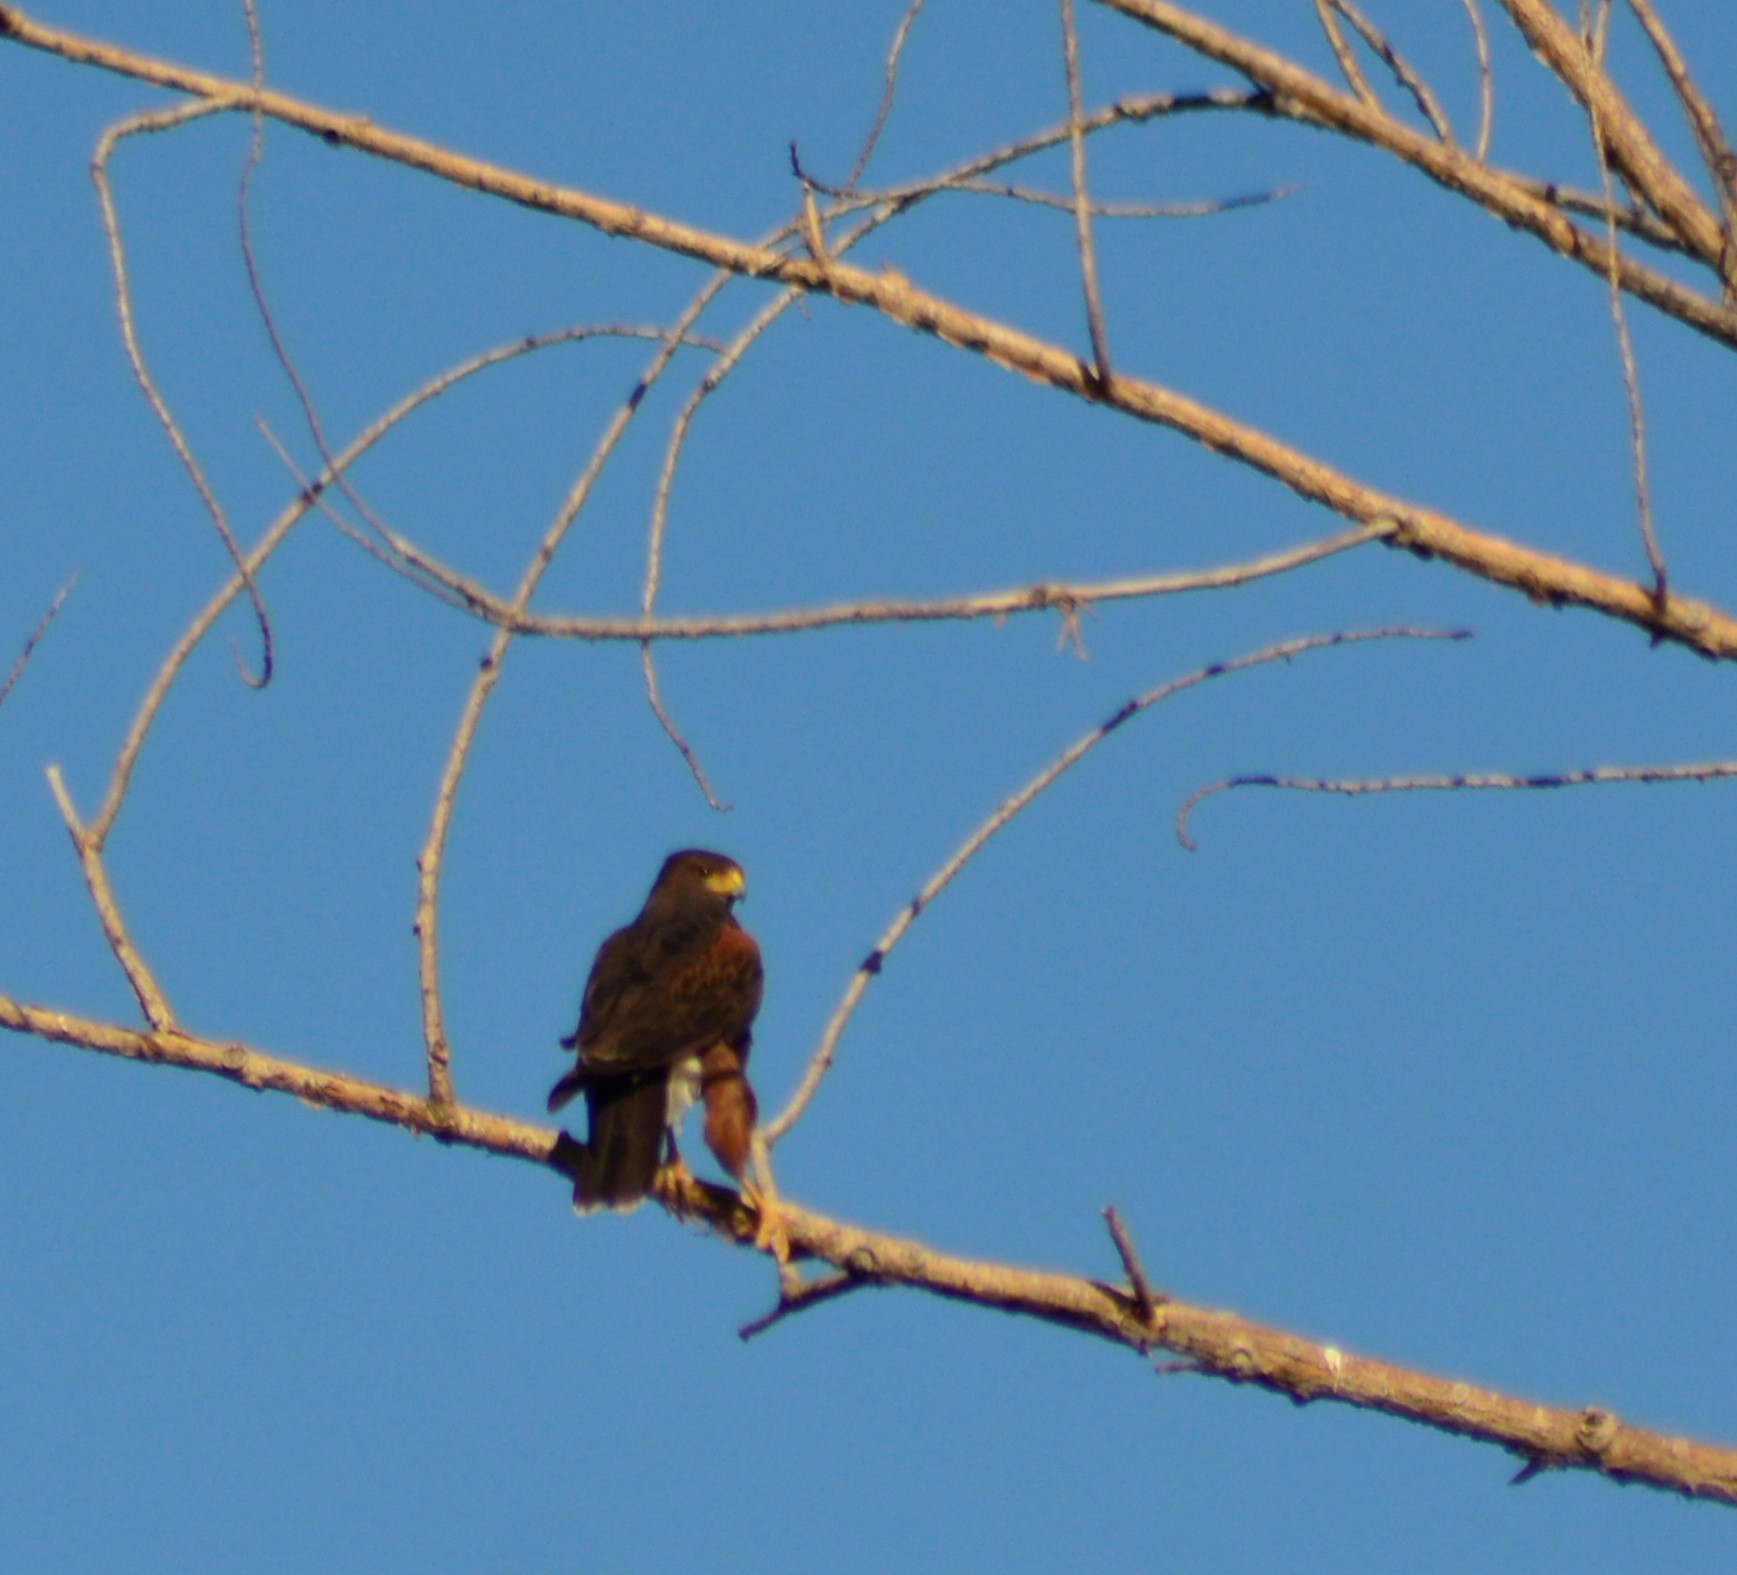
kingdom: Animalia
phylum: Chordata
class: Aves
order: Accipitriformes
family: Accipitridae
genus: Parabuteo
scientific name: Parabuteo unicinctus
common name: Harris's hawk
